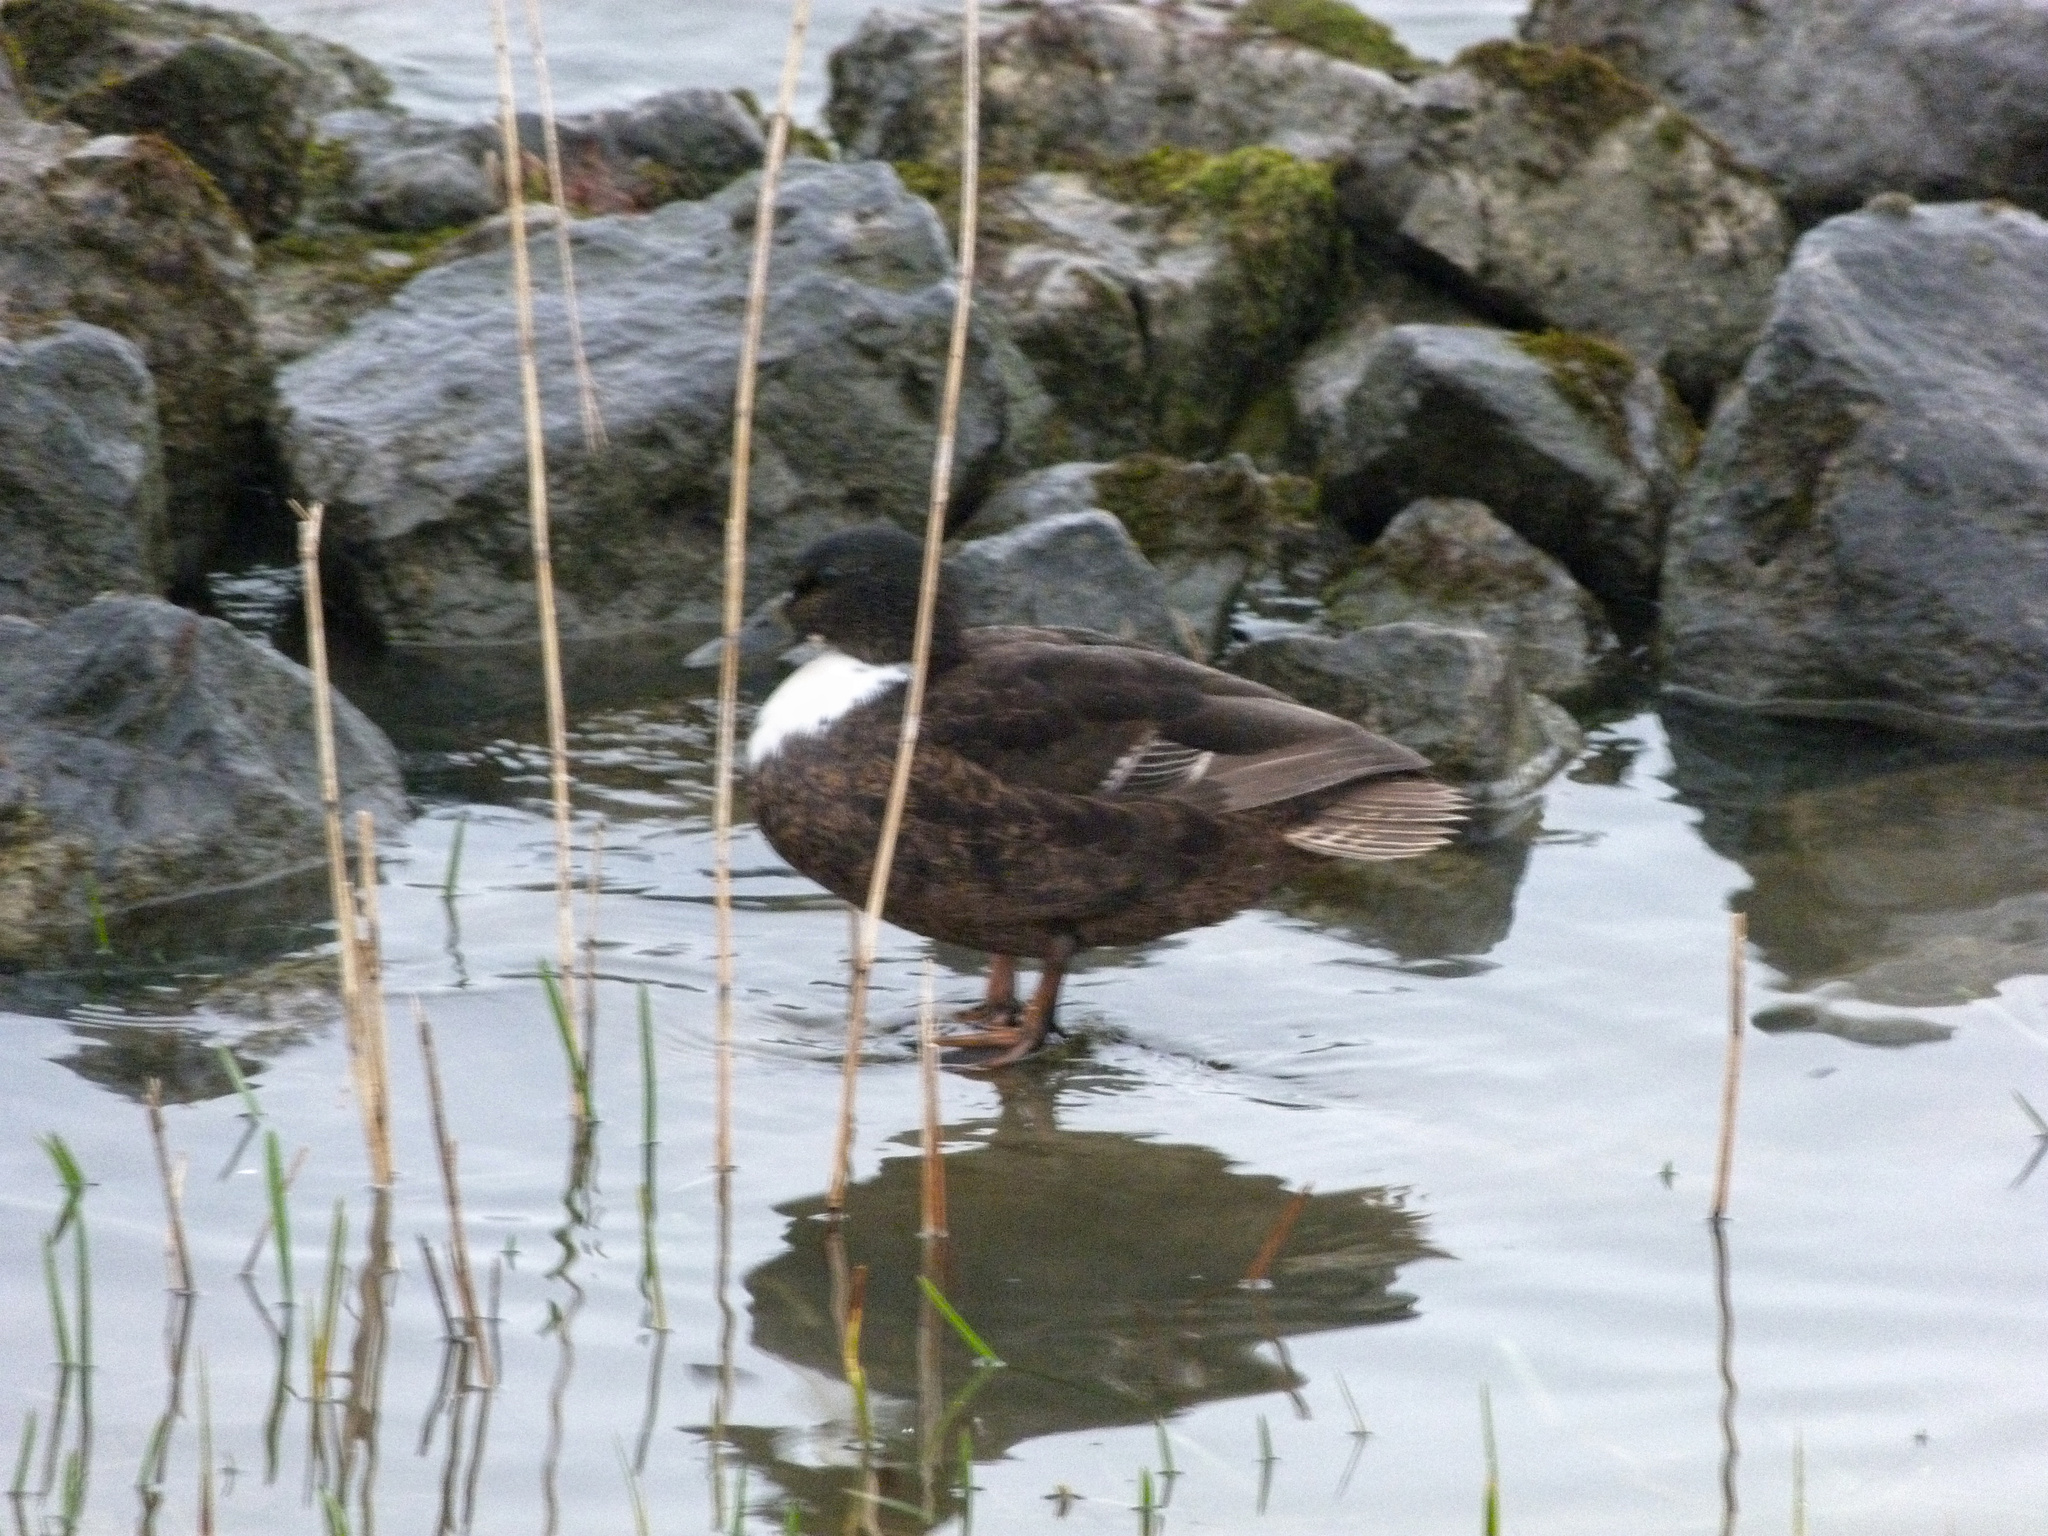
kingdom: Animalia
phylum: Chordata
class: Aves
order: Anseriformes
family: Anatidae
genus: Anas
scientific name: Anas platyrhynchos
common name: Mallard
